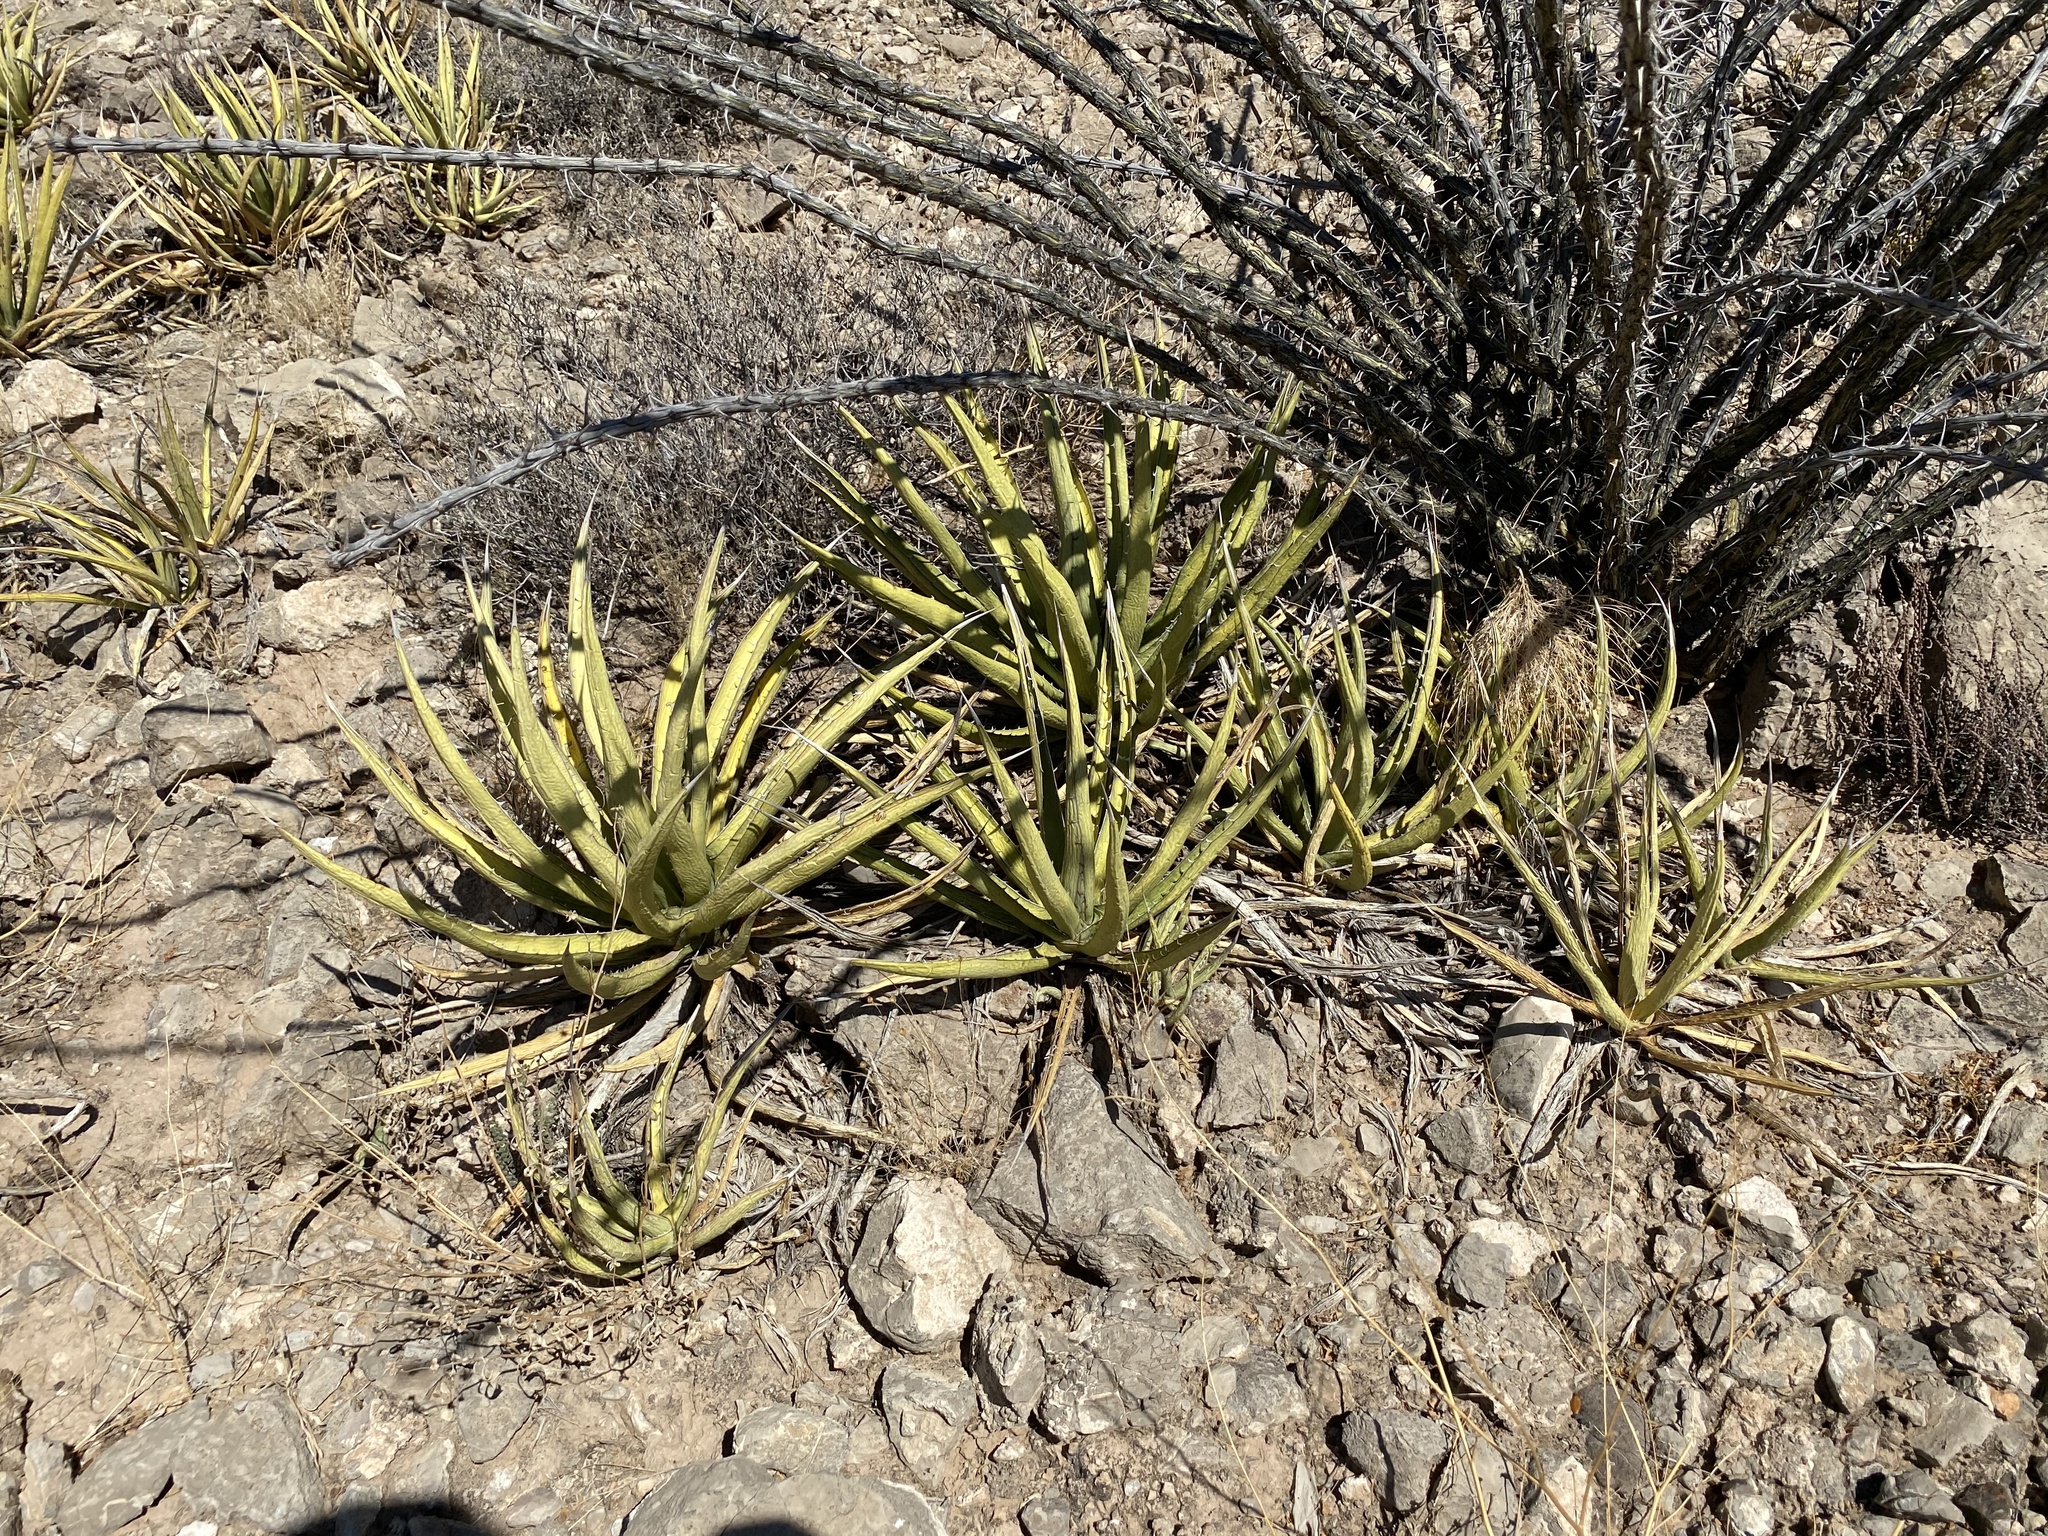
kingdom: Plantae
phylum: Tracheophyta
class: Liliopsida
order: Asparagales
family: Asparagaceae
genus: Agave
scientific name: Agave lechuguilla
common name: Lecheguilla agave
